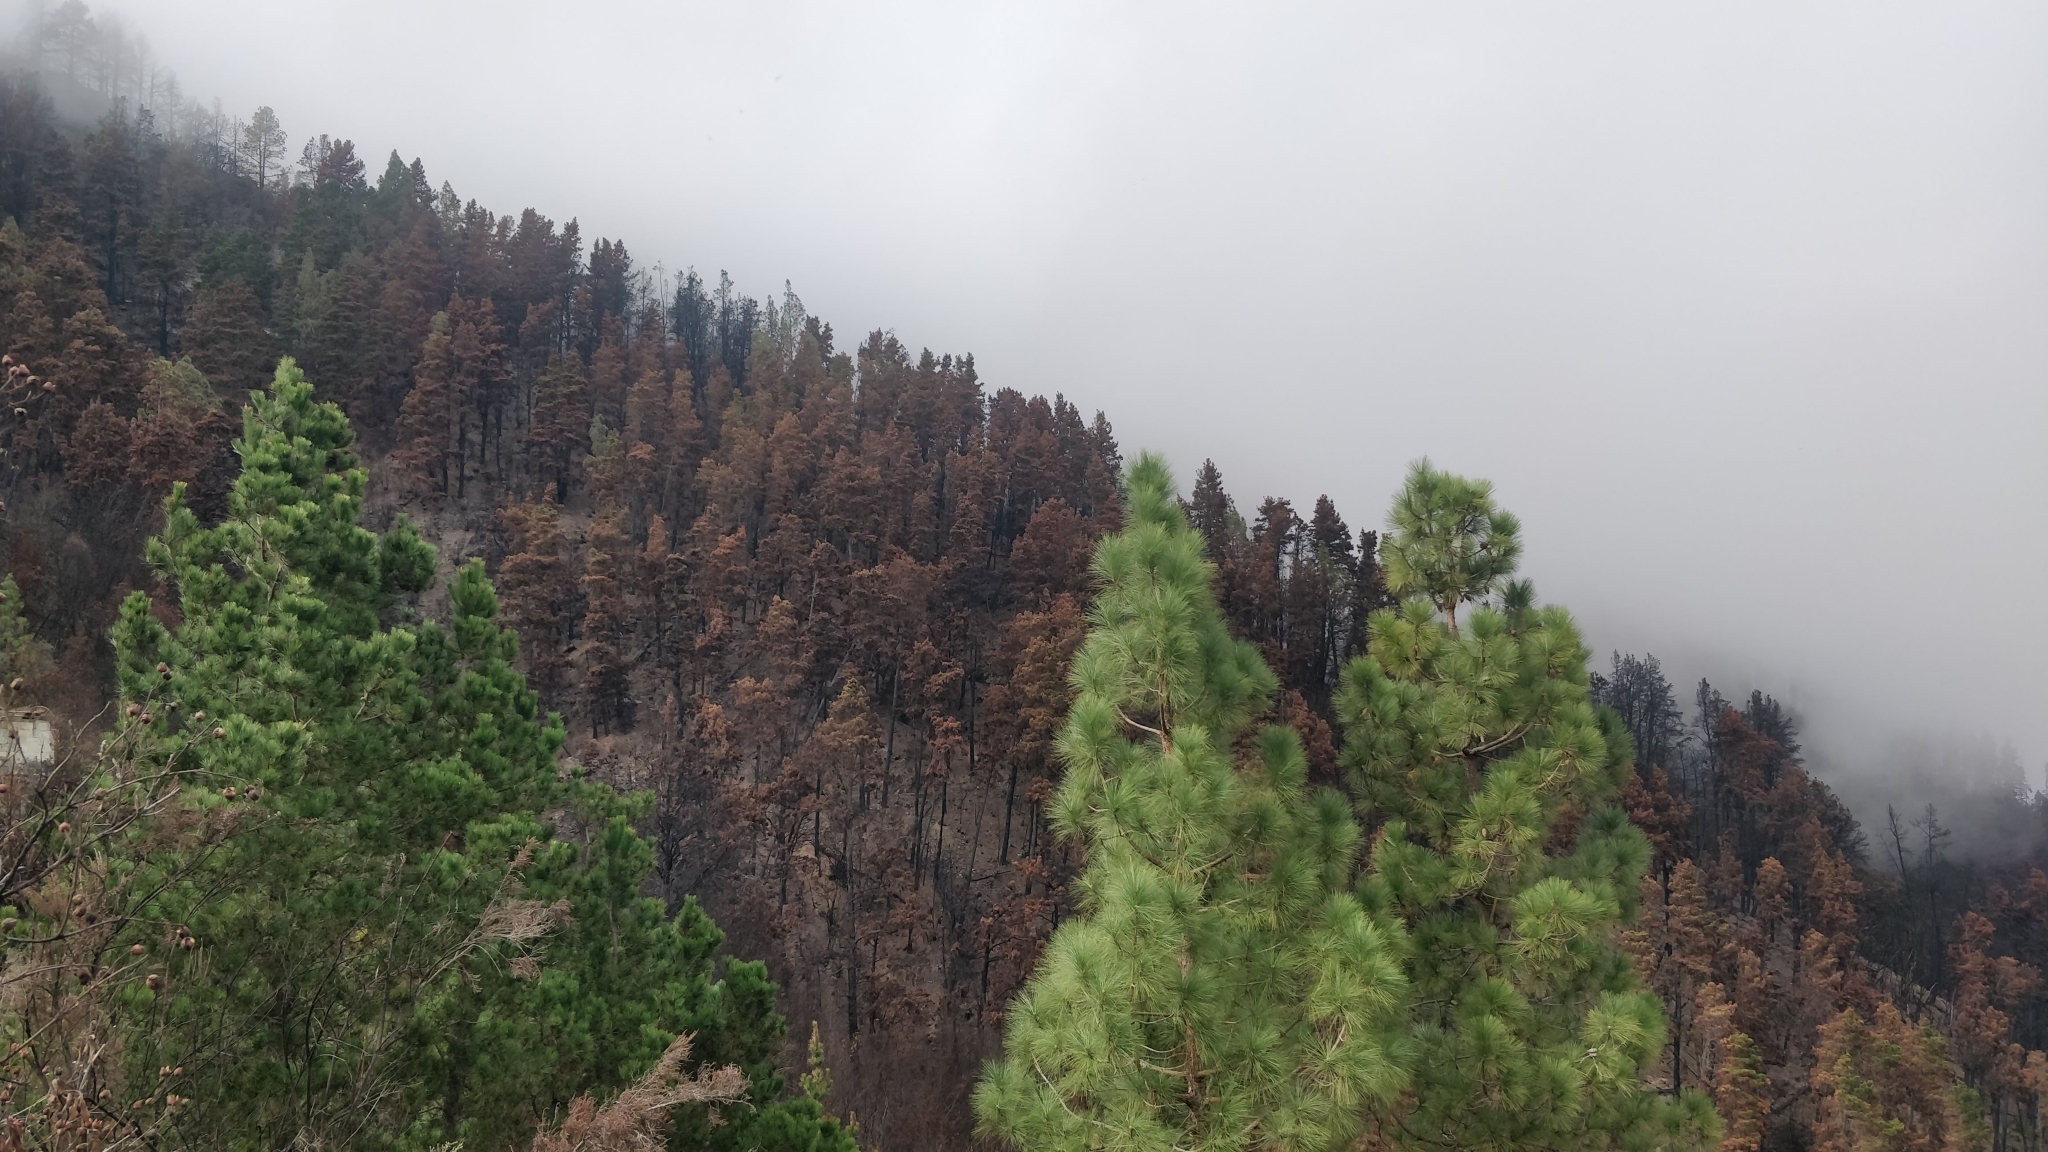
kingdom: Plantae
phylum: Tracheophyta
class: Pinopsida
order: Pinales
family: Pinaceae
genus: Pinus
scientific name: Pinus canariensis
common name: Canary islands pine
